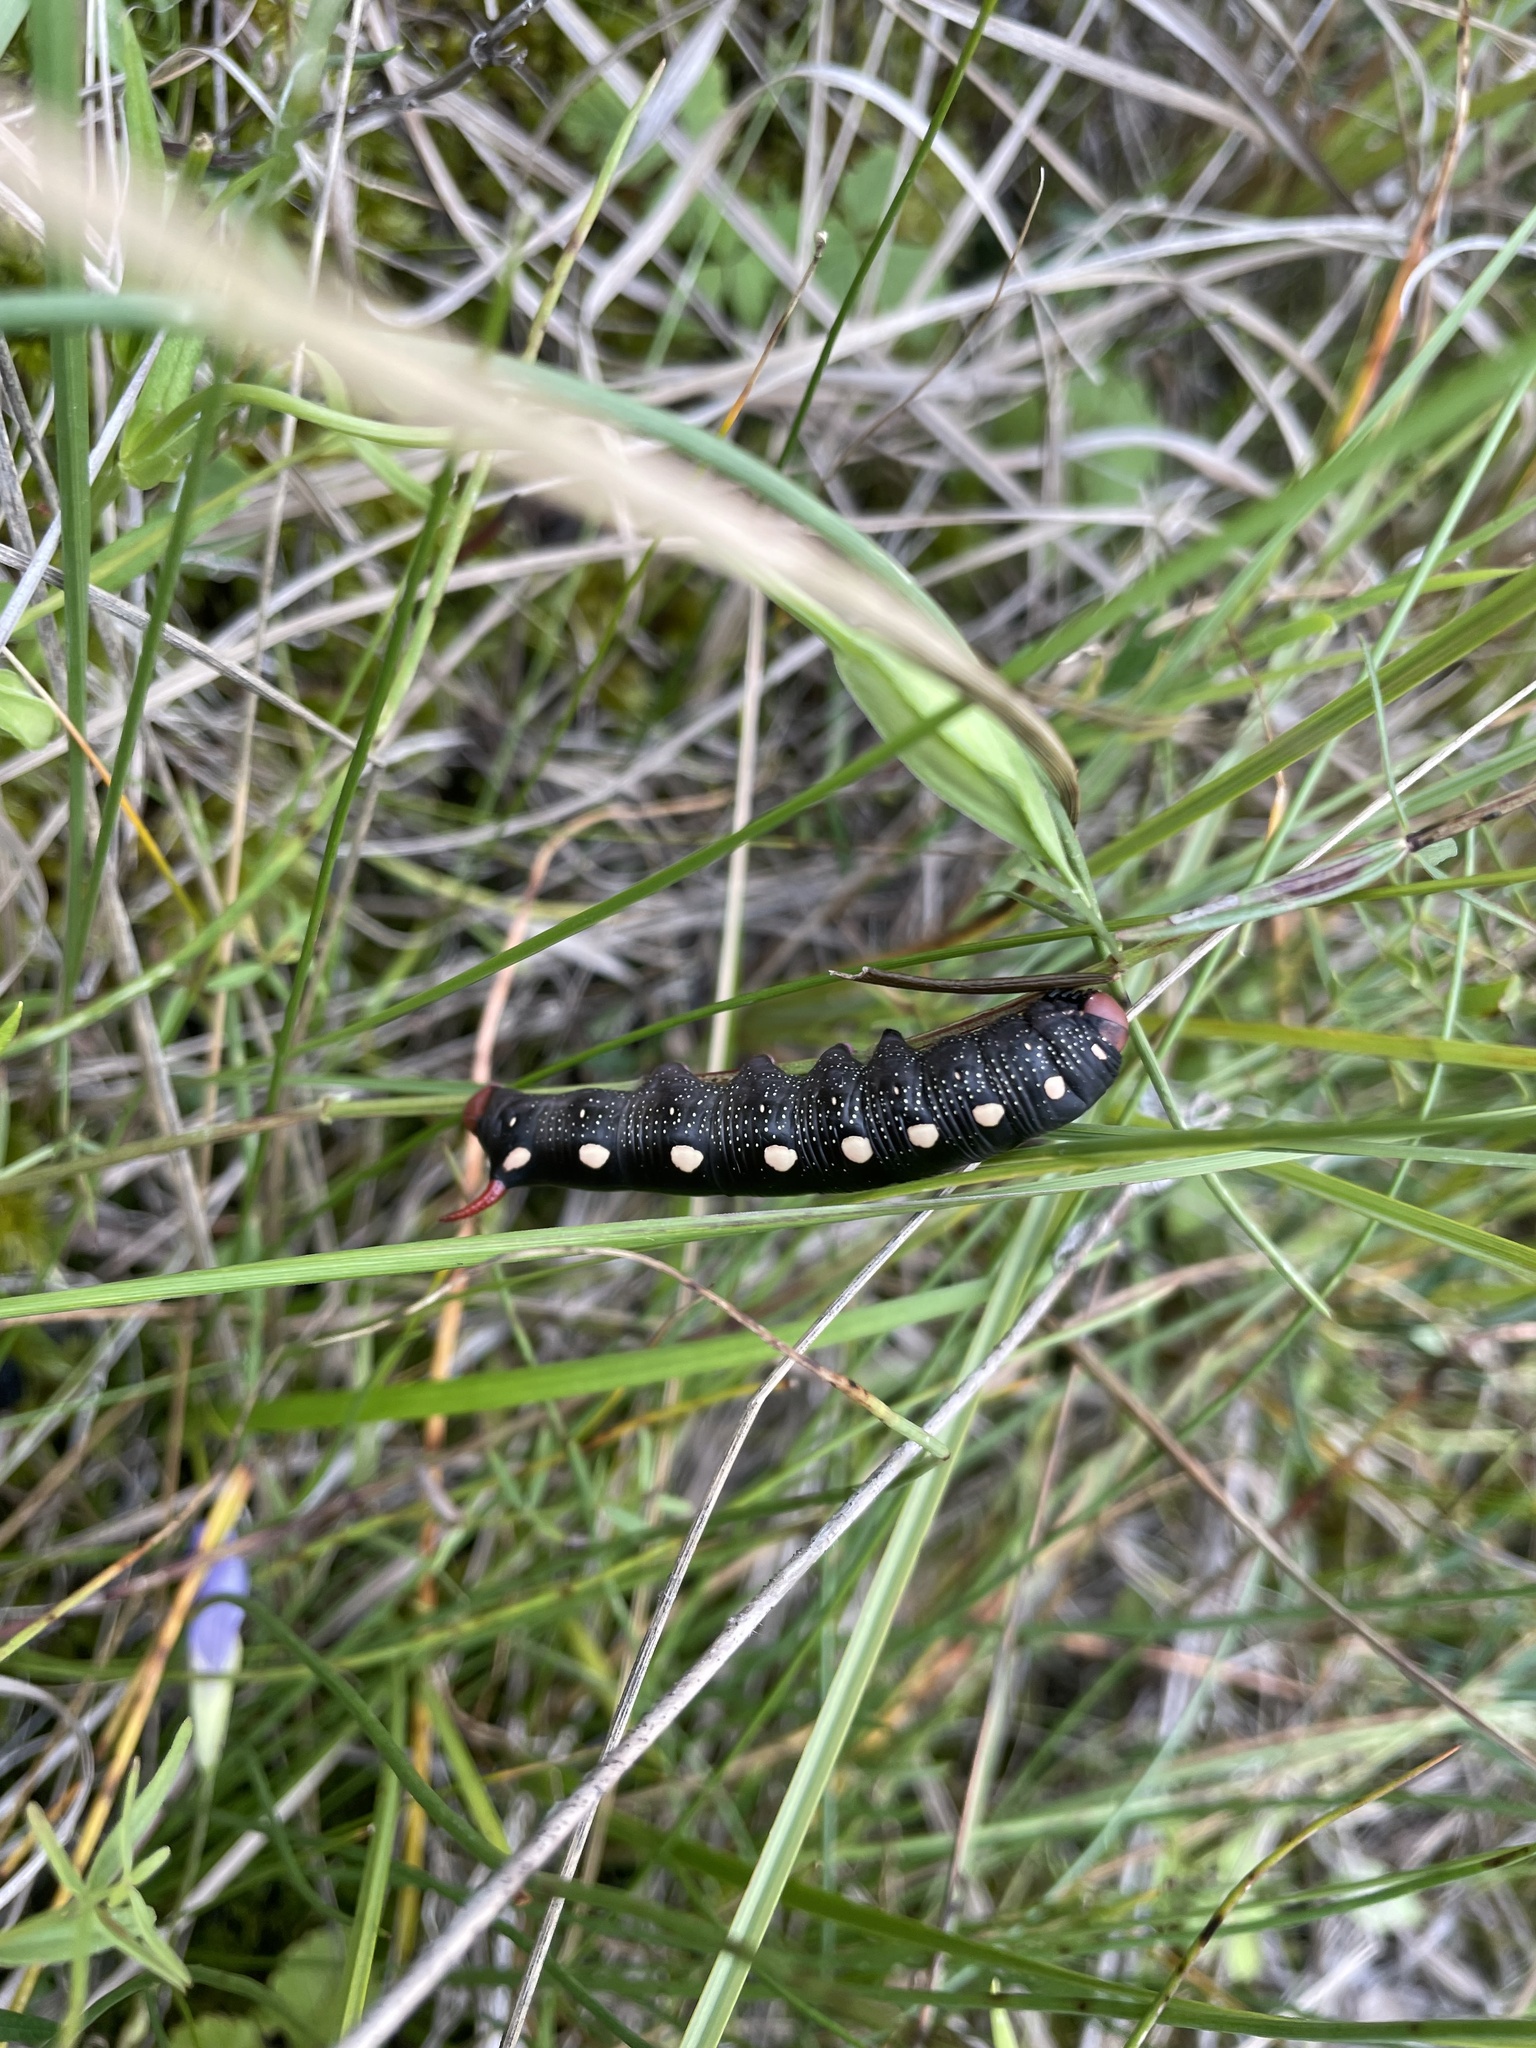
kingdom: Animalia
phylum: Arthropoda
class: Insecta
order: Lepidoptera
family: Sphingidae
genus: Hyles
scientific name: Hyles gallii
